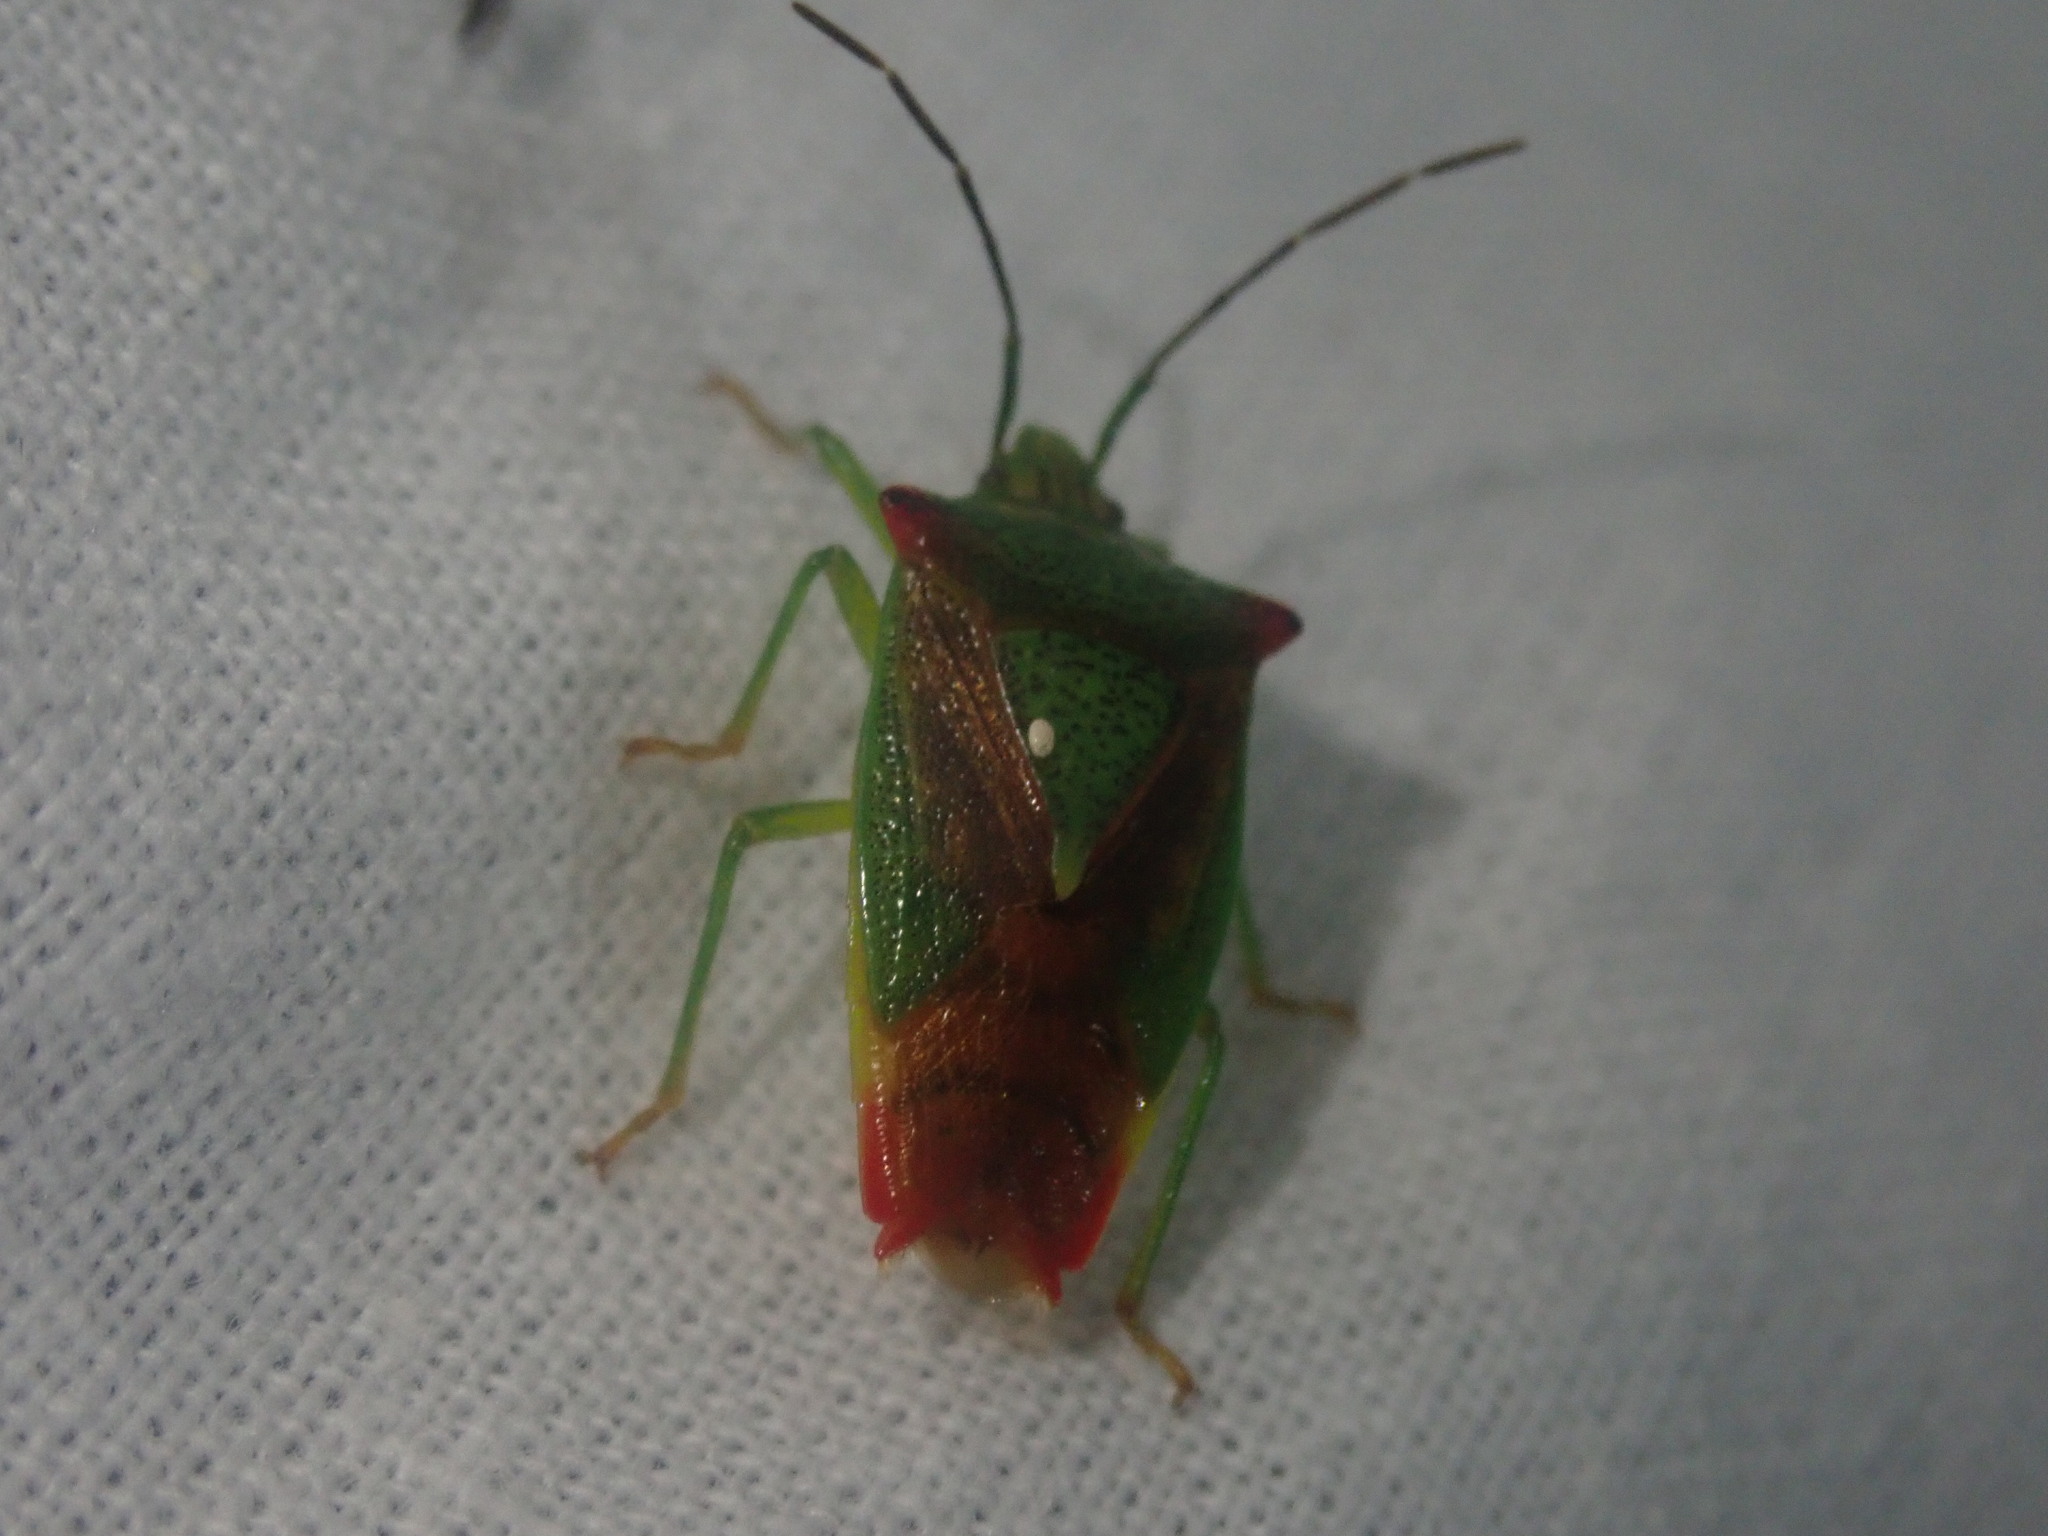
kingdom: Animalia
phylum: Arthropoda
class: Insecta
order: Hemiptera
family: Acanthosomatidae
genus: Acanthosoma
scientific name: Acanthosoma haemorrhoidale
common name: Hawthorn shieldbug
